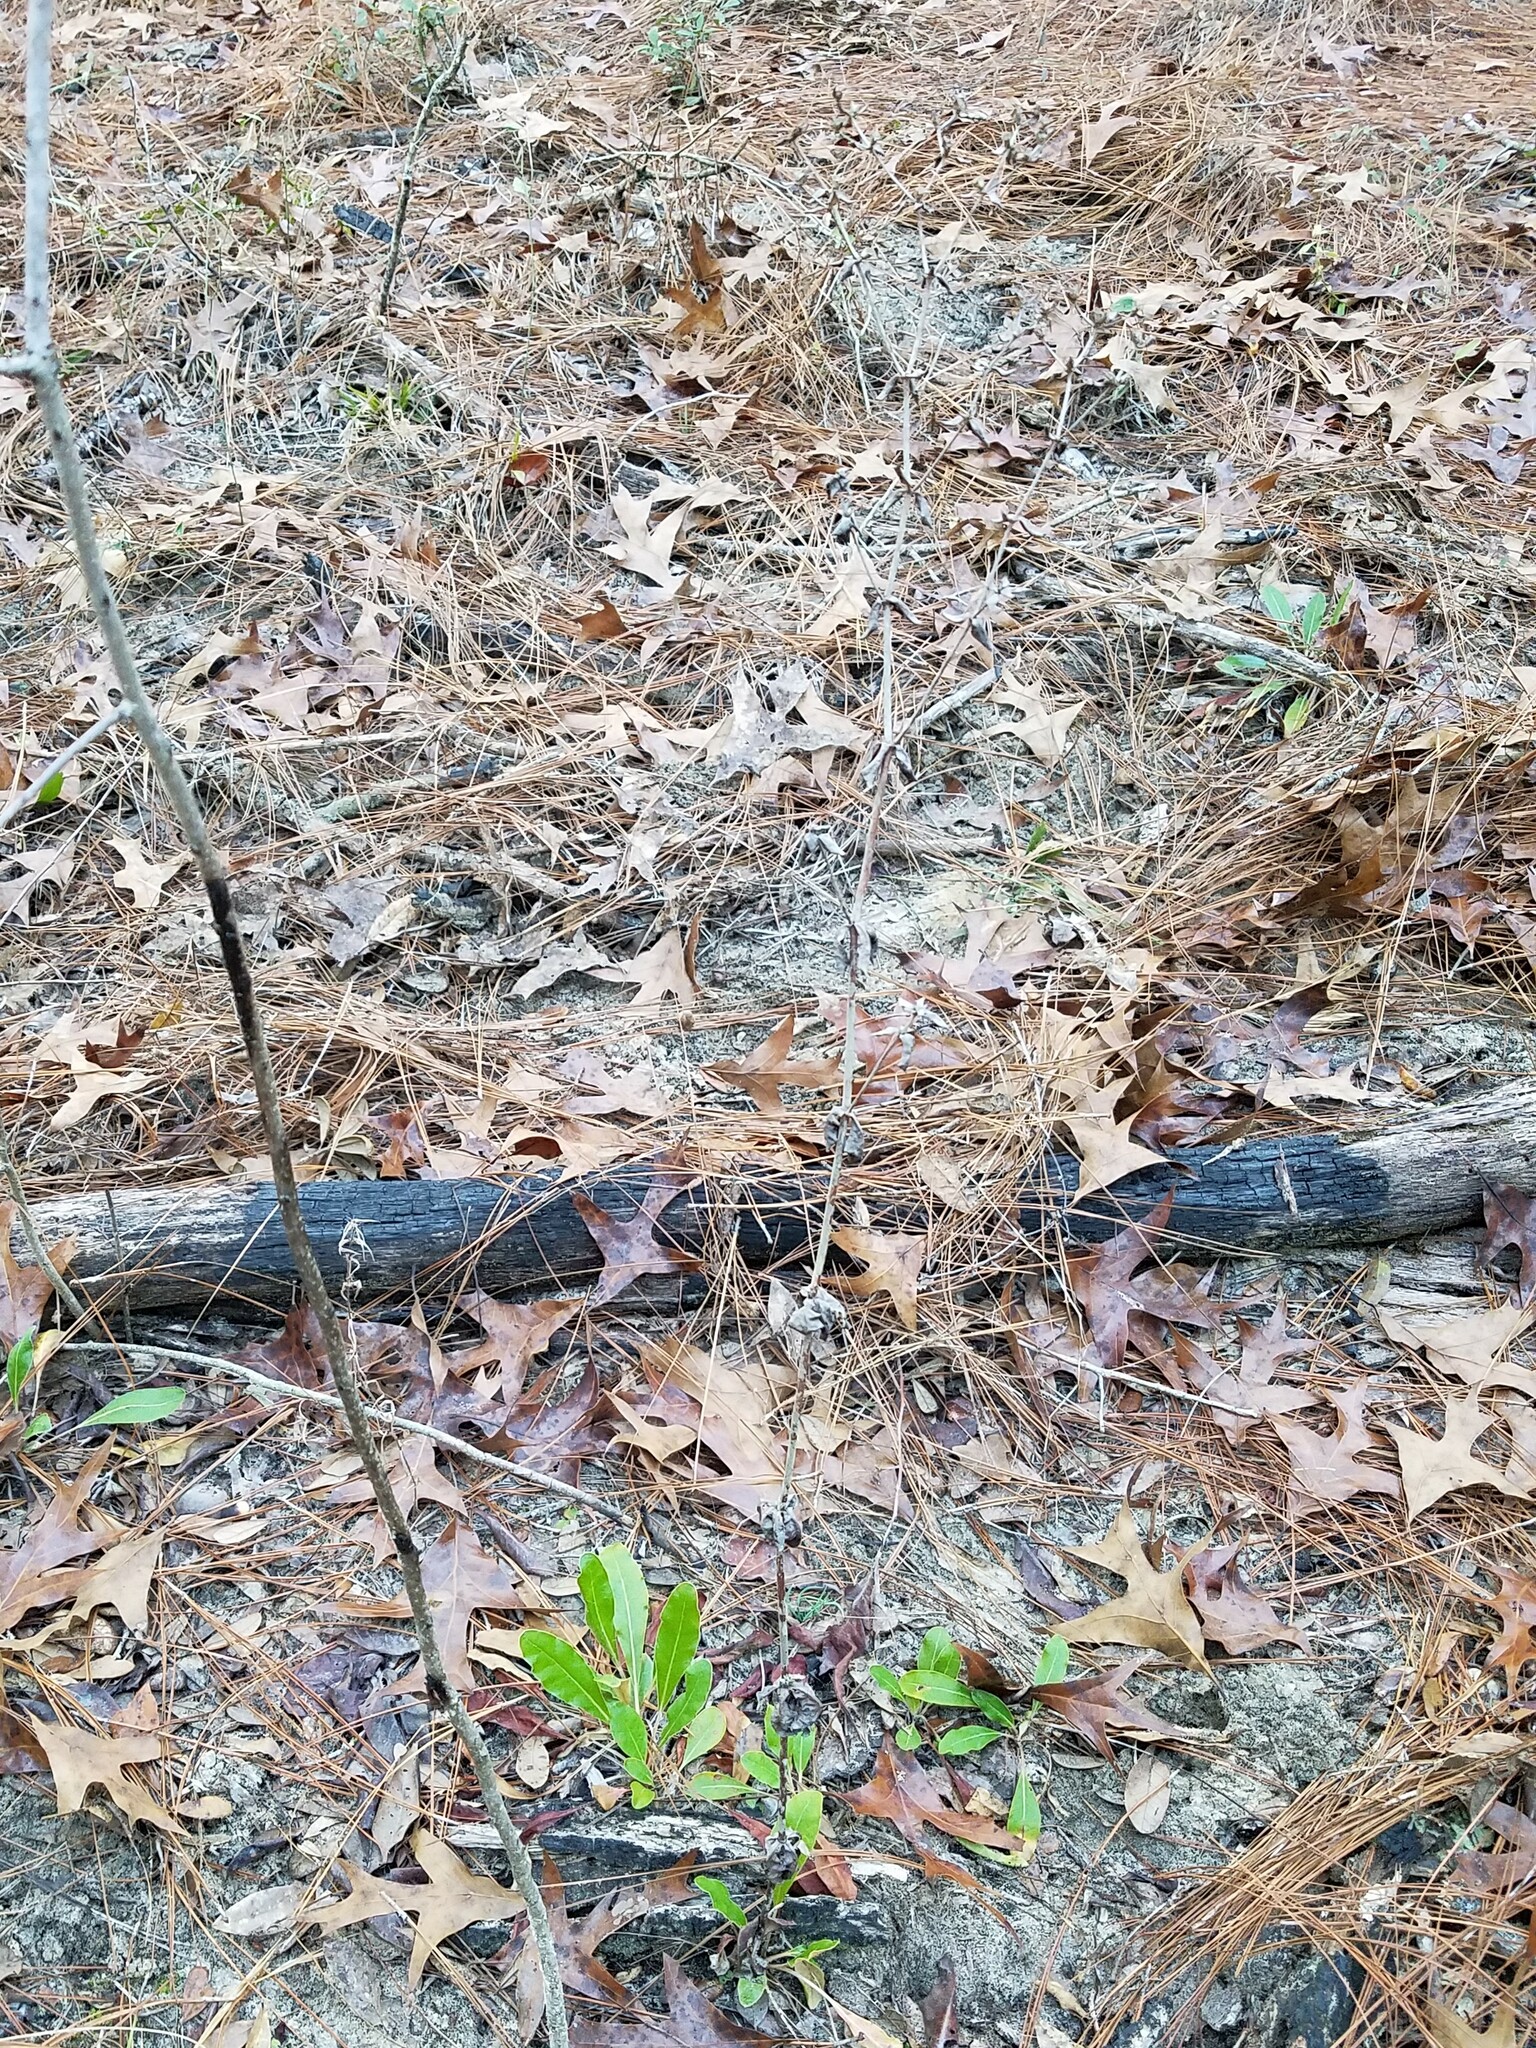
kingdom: Plantae
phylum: Tracheophyta
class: Magnoliopsida
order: Caryophyllales
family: Polygonaceae
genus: Eriogonum
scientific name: Eriogonum tomentosum
